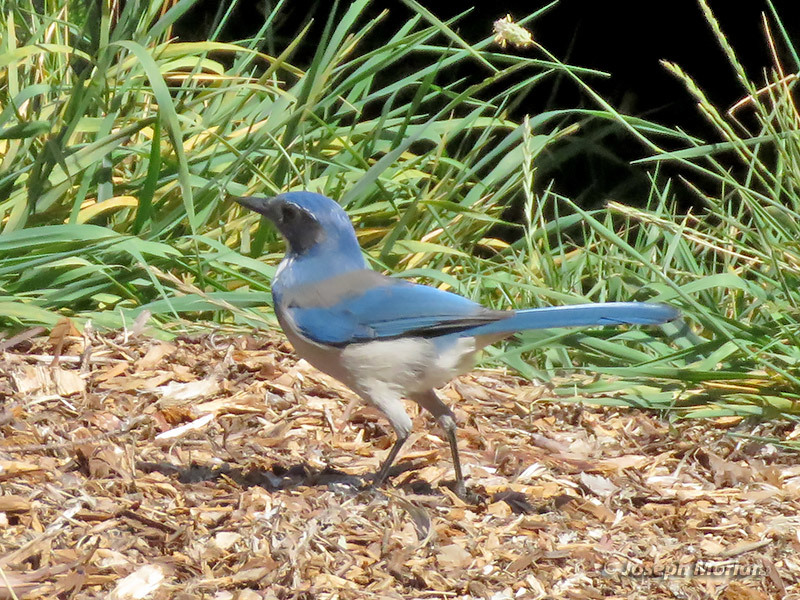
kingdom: Animalia
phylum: Chordata
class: Aves
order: Passeriformes
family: Corvidae
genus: Aphelocoma
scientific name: Aphelocoma californica
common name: California scrub-jay
